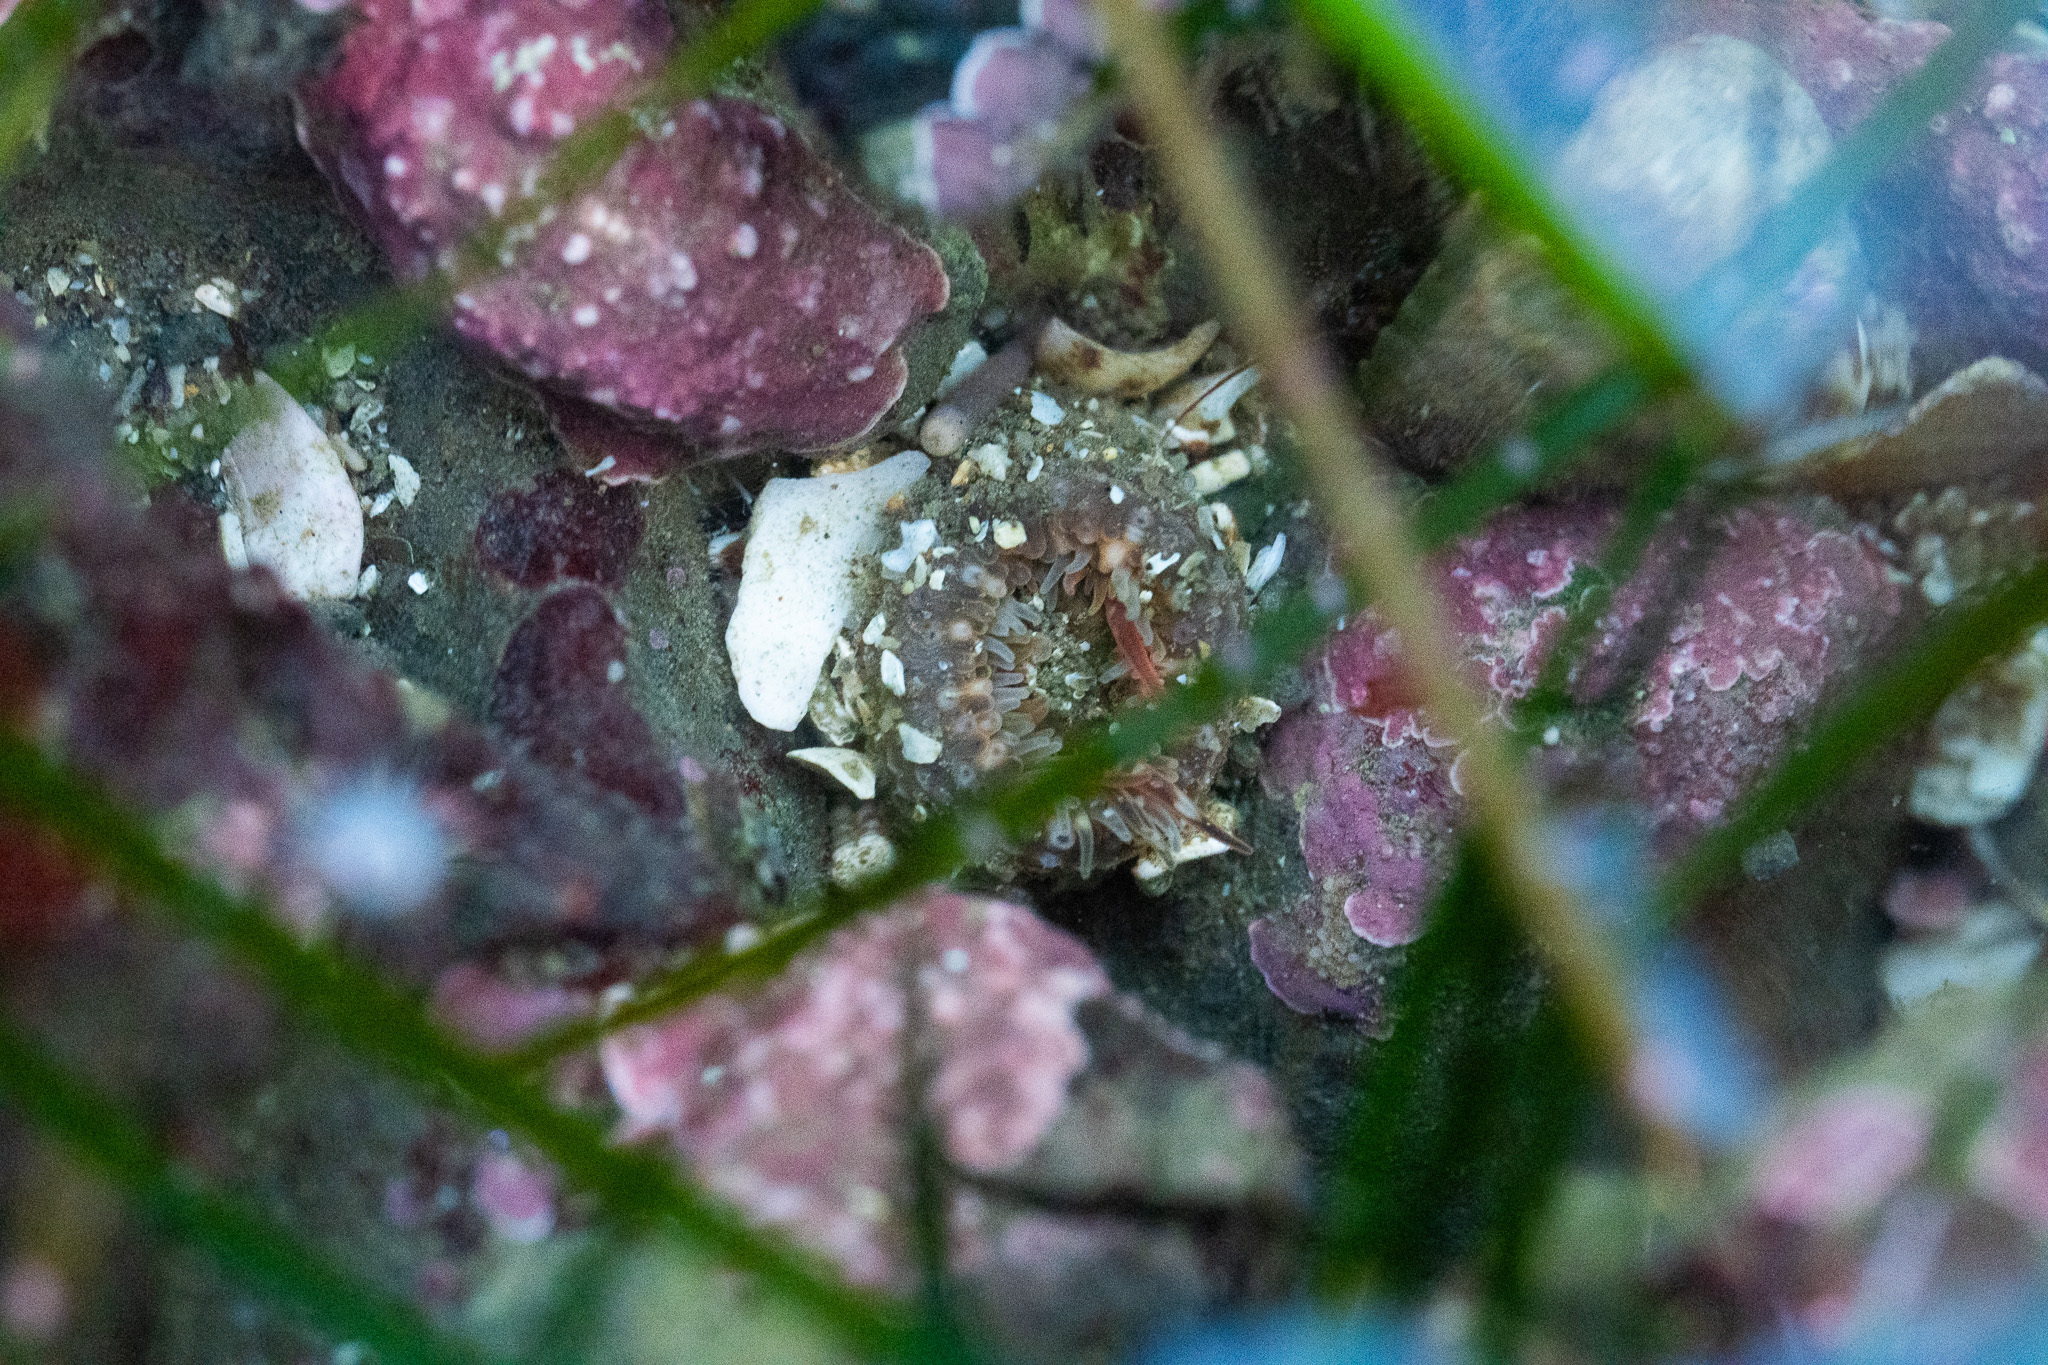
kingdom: Animalia
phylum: Cnidaria
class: Anthozoa
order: Actiniaria
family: Actiniidae
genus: Anthopleura
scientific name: Anthopleura artemisia
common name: Buried sea anemone
